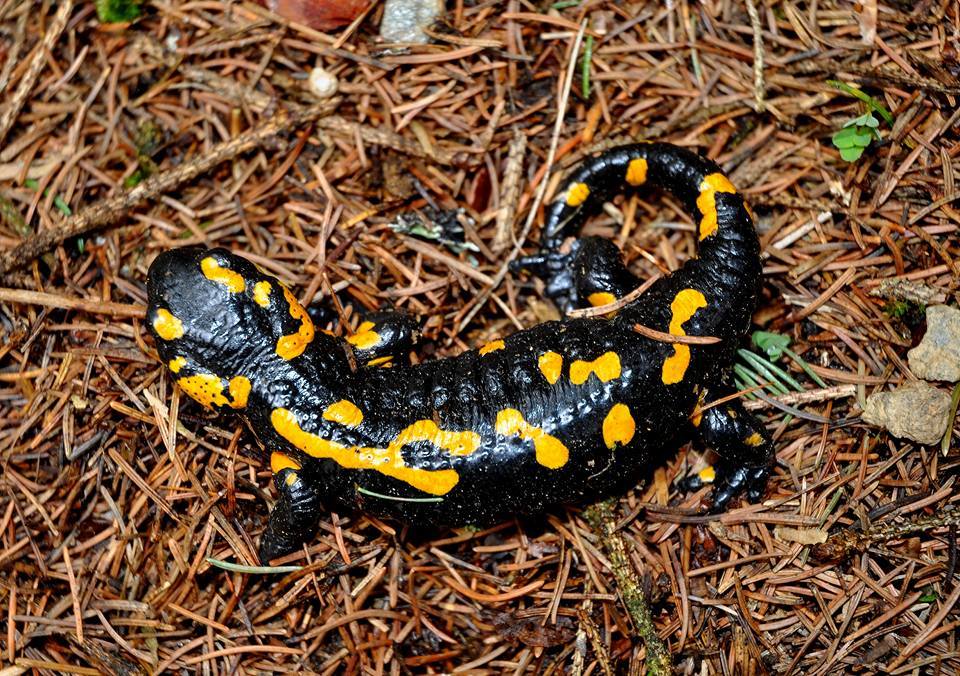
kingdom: Animalia
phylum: Chordata
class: Amphibia
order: Caudata
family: Salamandridae
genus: Salamandra
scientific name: Salamandra salamandra
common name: Fire salamander
